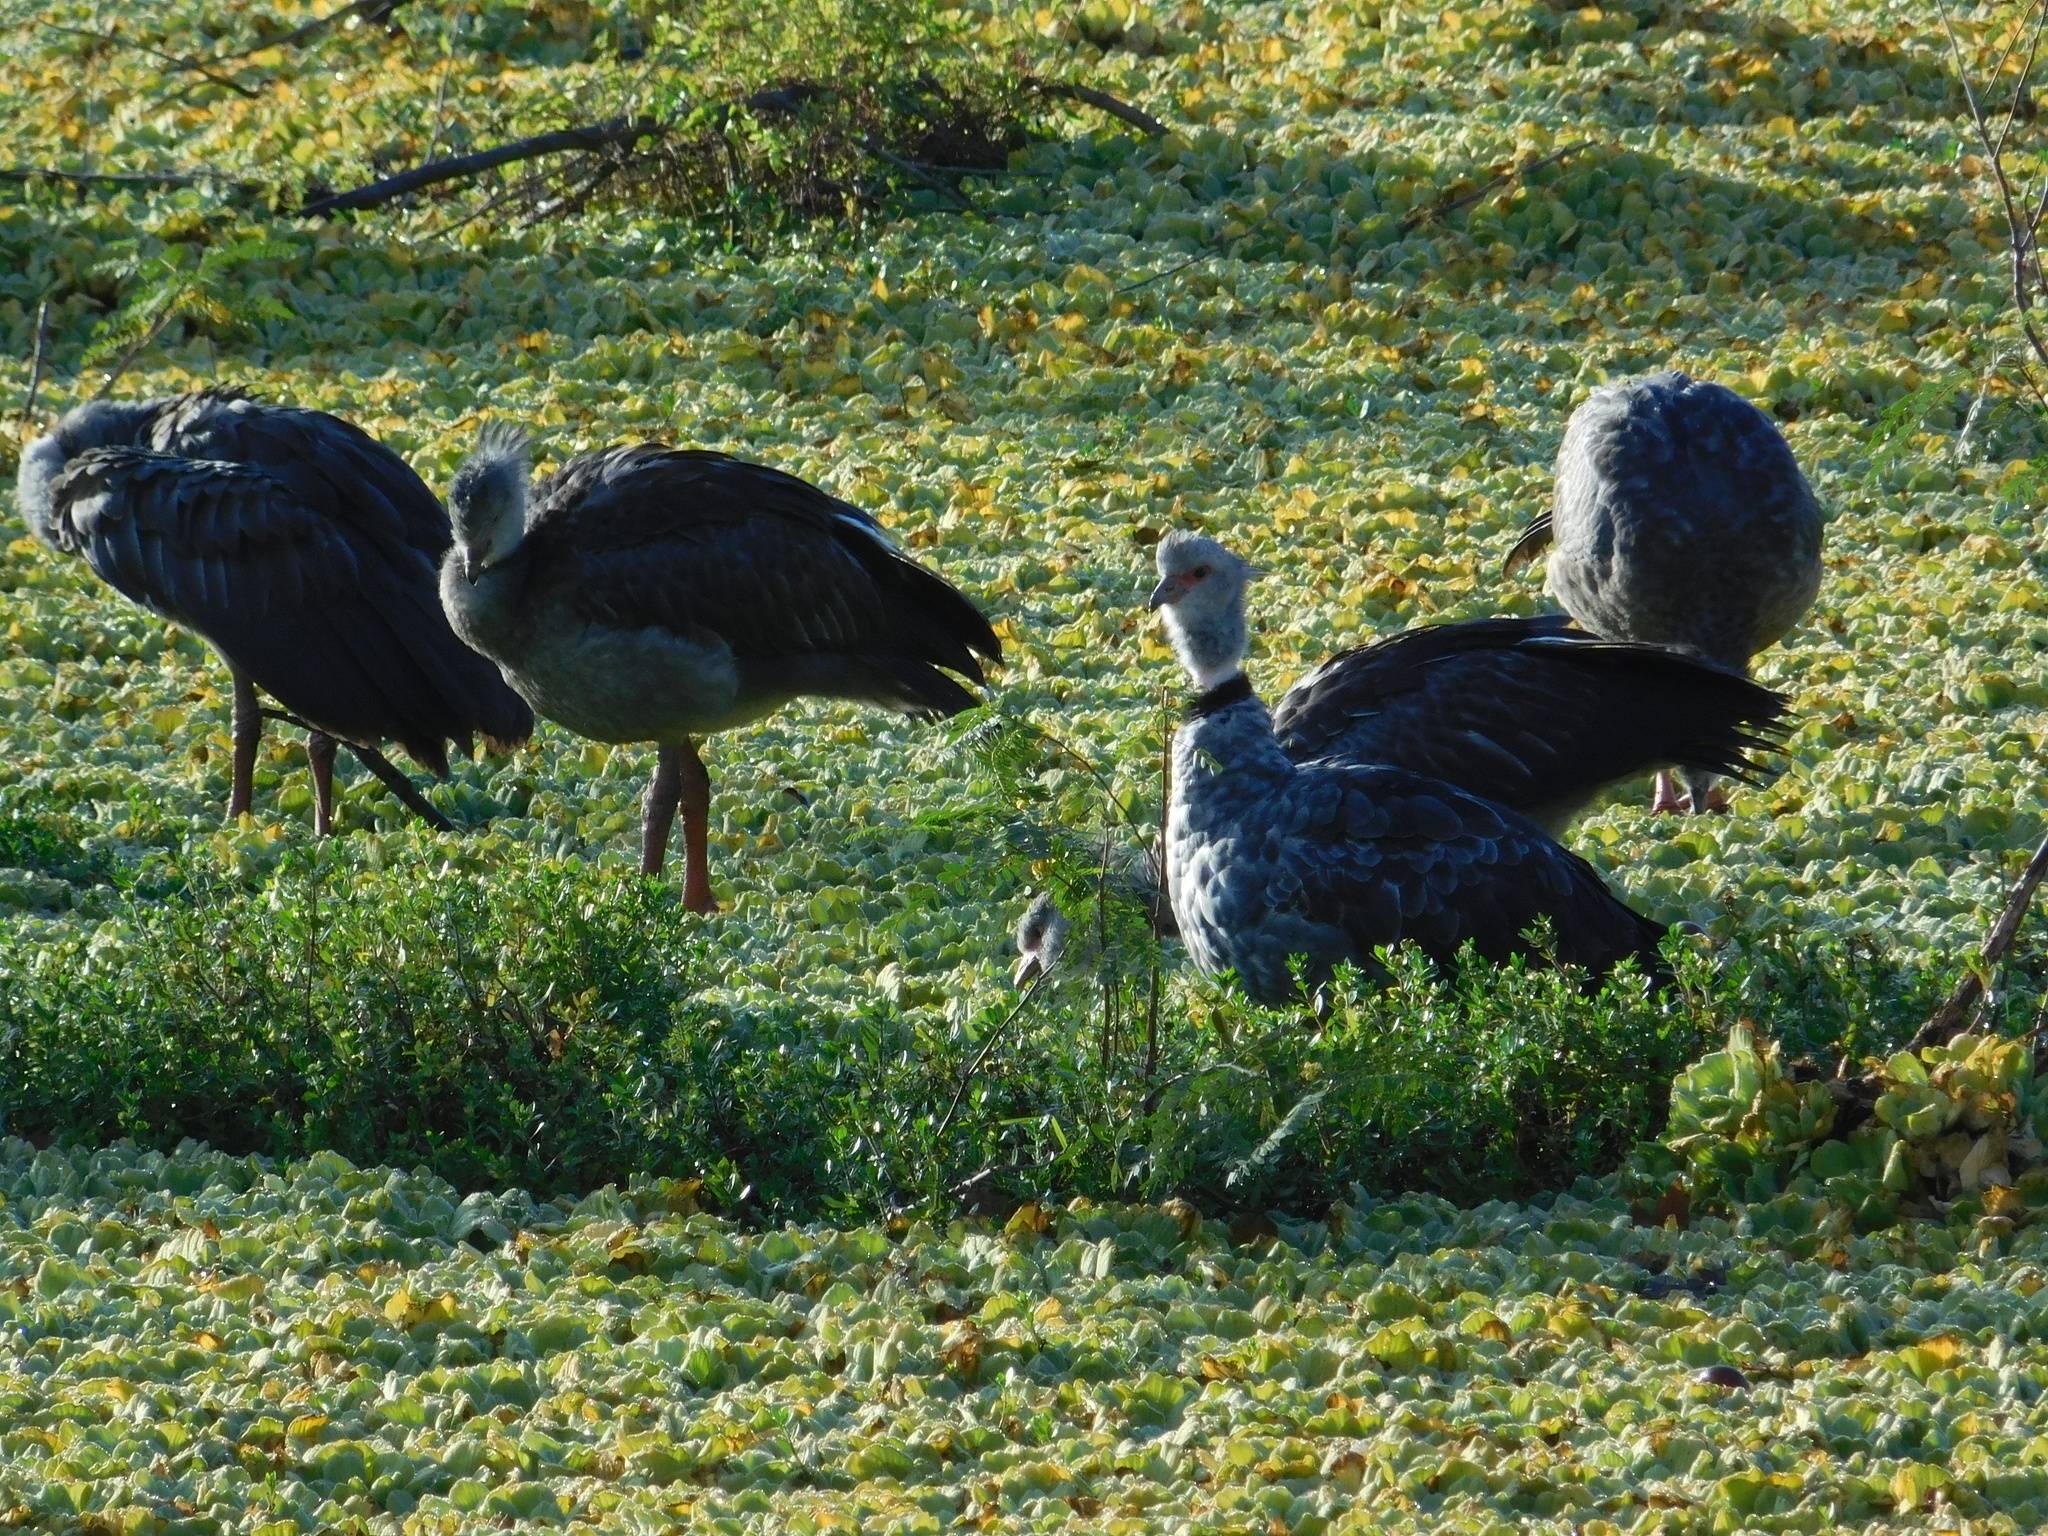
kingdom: Animalia
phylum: Chordata
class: Aves
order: Anseriformes
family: Anhimidae
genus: Chauna
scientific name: Chauna torquata
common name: Southern screamer
